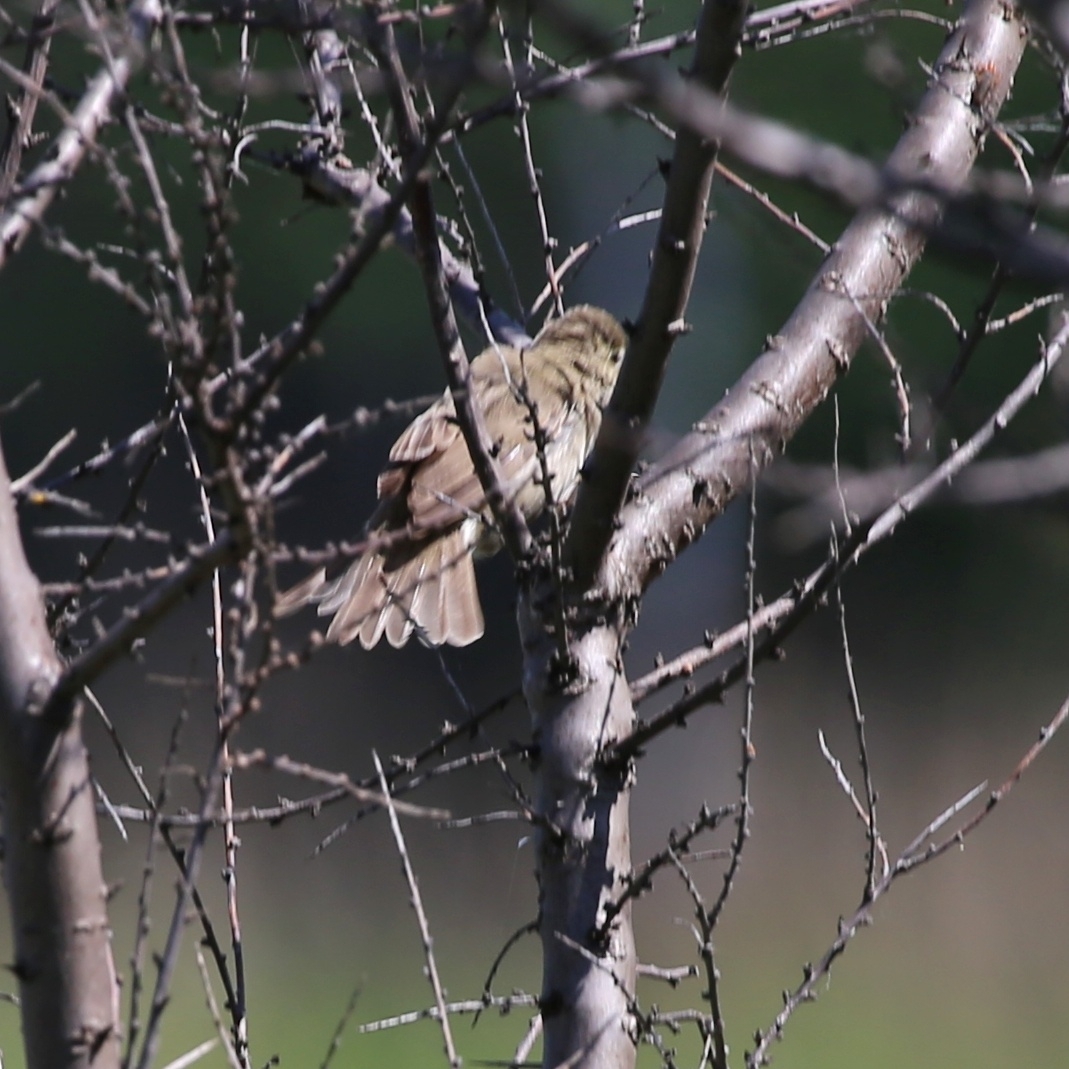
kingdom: Animalia
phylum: Chordata
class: Aves
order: Passeriformes
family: Acrocephalidae
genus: Acrocephalus
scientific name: Acrocephalus dumetorum
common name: Blyth's reed warbler
